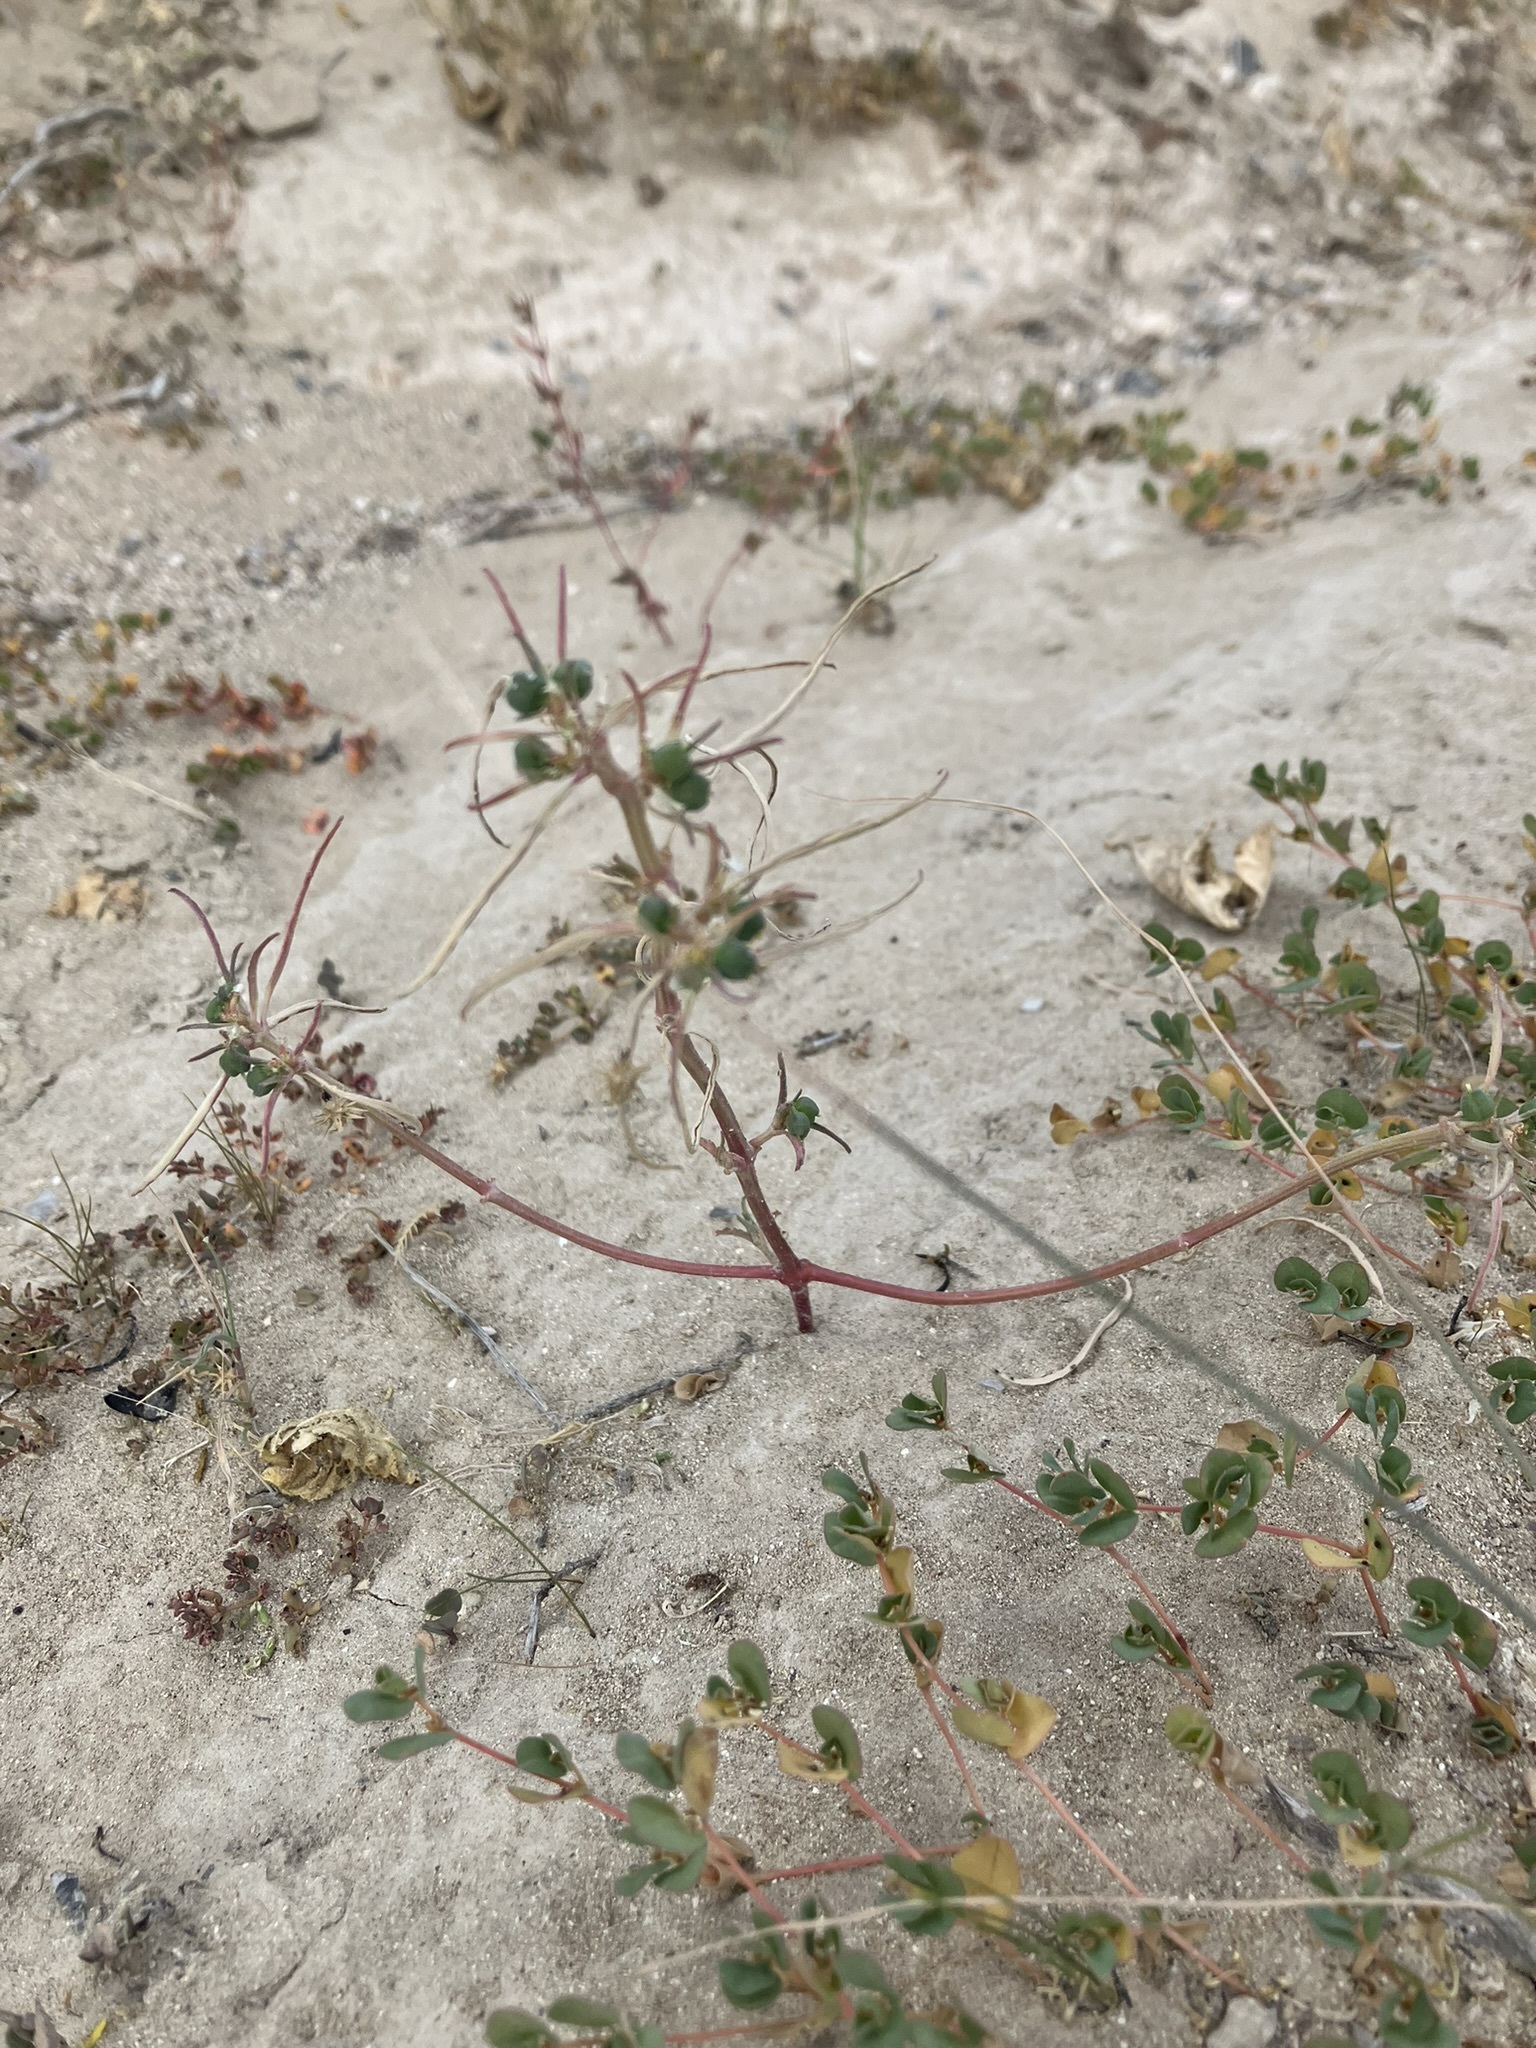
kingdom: Plantae
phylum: Tracheophyta
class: Magnoliopsida
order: Malpighiales
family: Euphorbiaceae
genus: Euphorbia
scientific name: Euphorbia exstipulata
